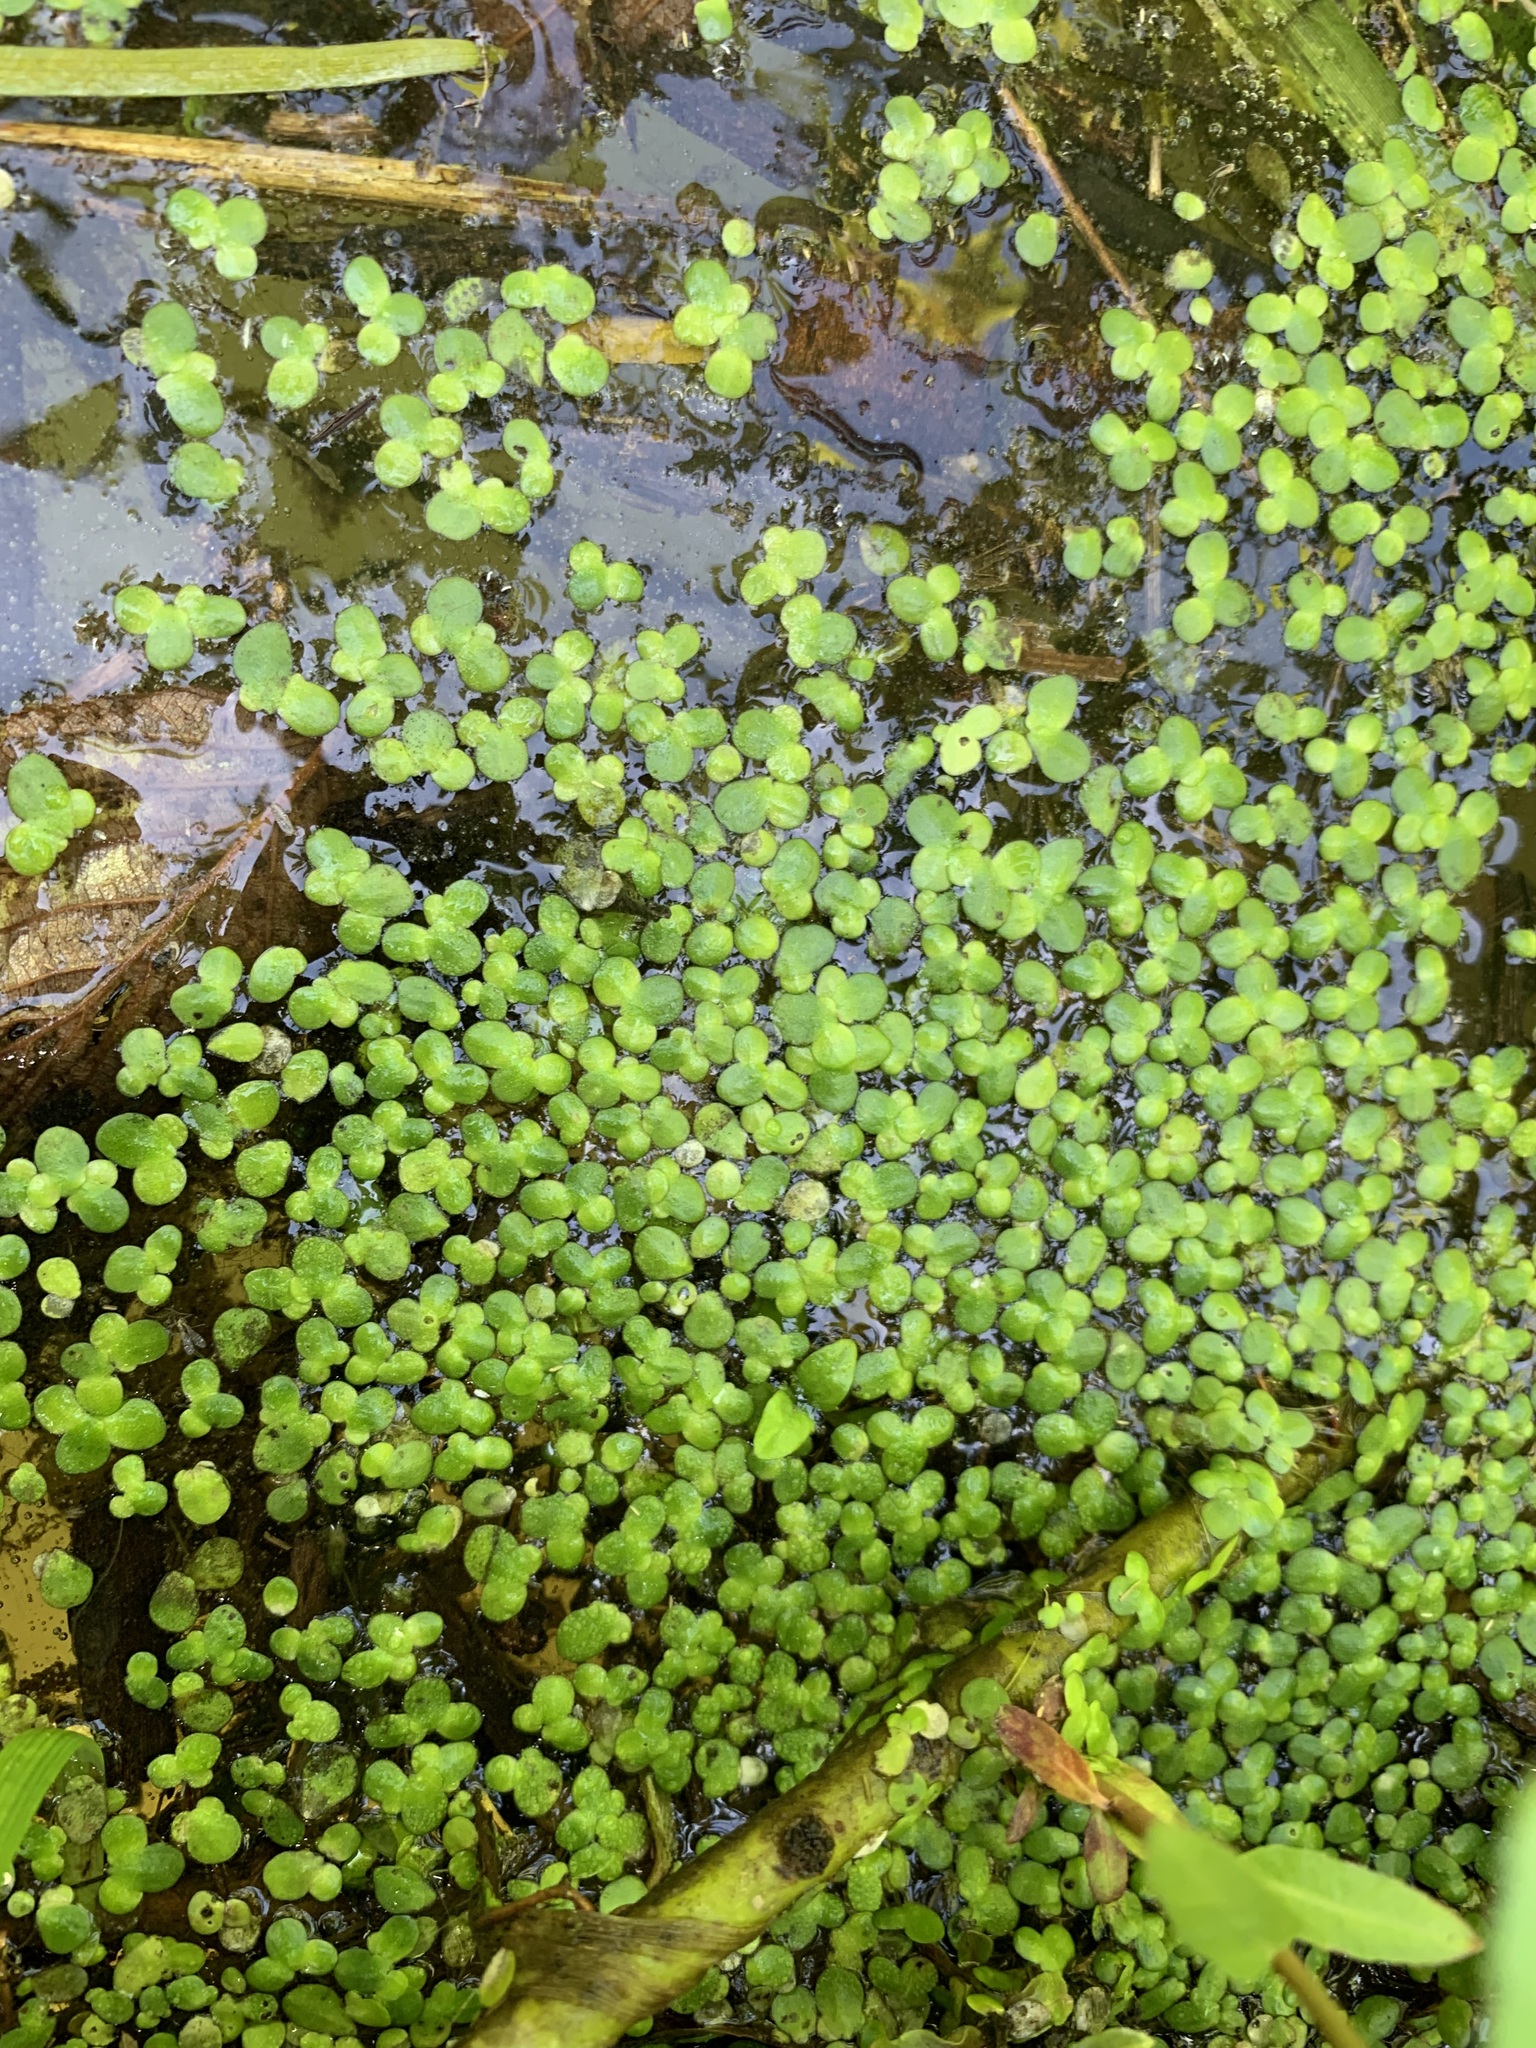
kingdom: Plantae
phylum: Tracheophyta
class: Liliopsida
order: Alismatales
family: Araceae
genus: Lemna
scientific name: Lemna turionifera
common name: Perennial duckweed
